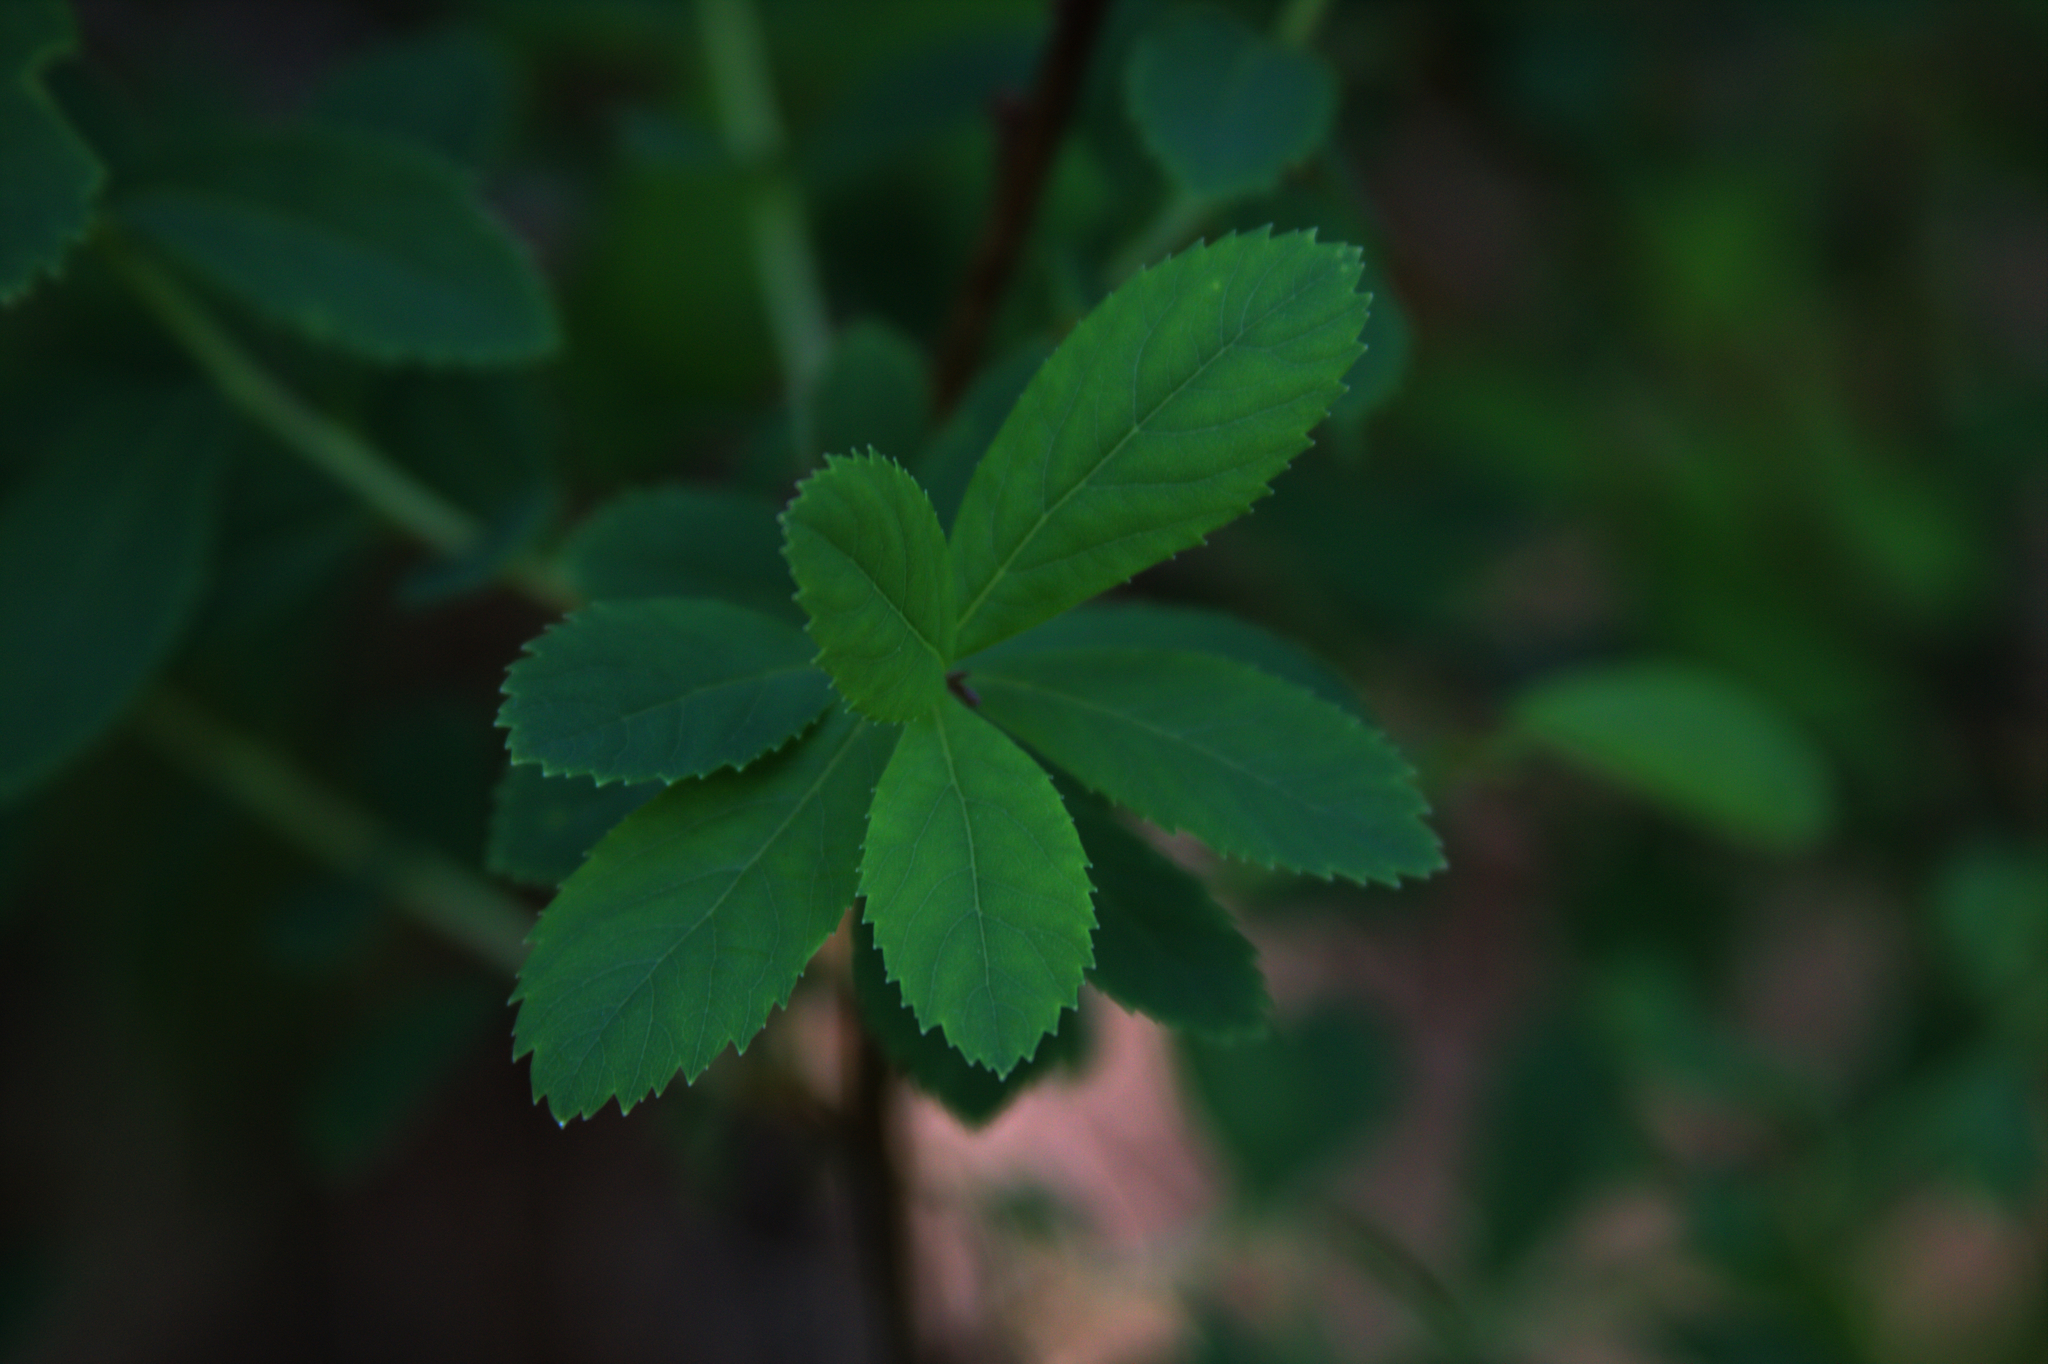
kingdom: Plantae
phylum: Tracheophyta
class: Magnoliopsida
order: Rosales
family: Rosaceae
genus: Spiraea
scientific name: Spiraea alba
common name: Pale bridewort
